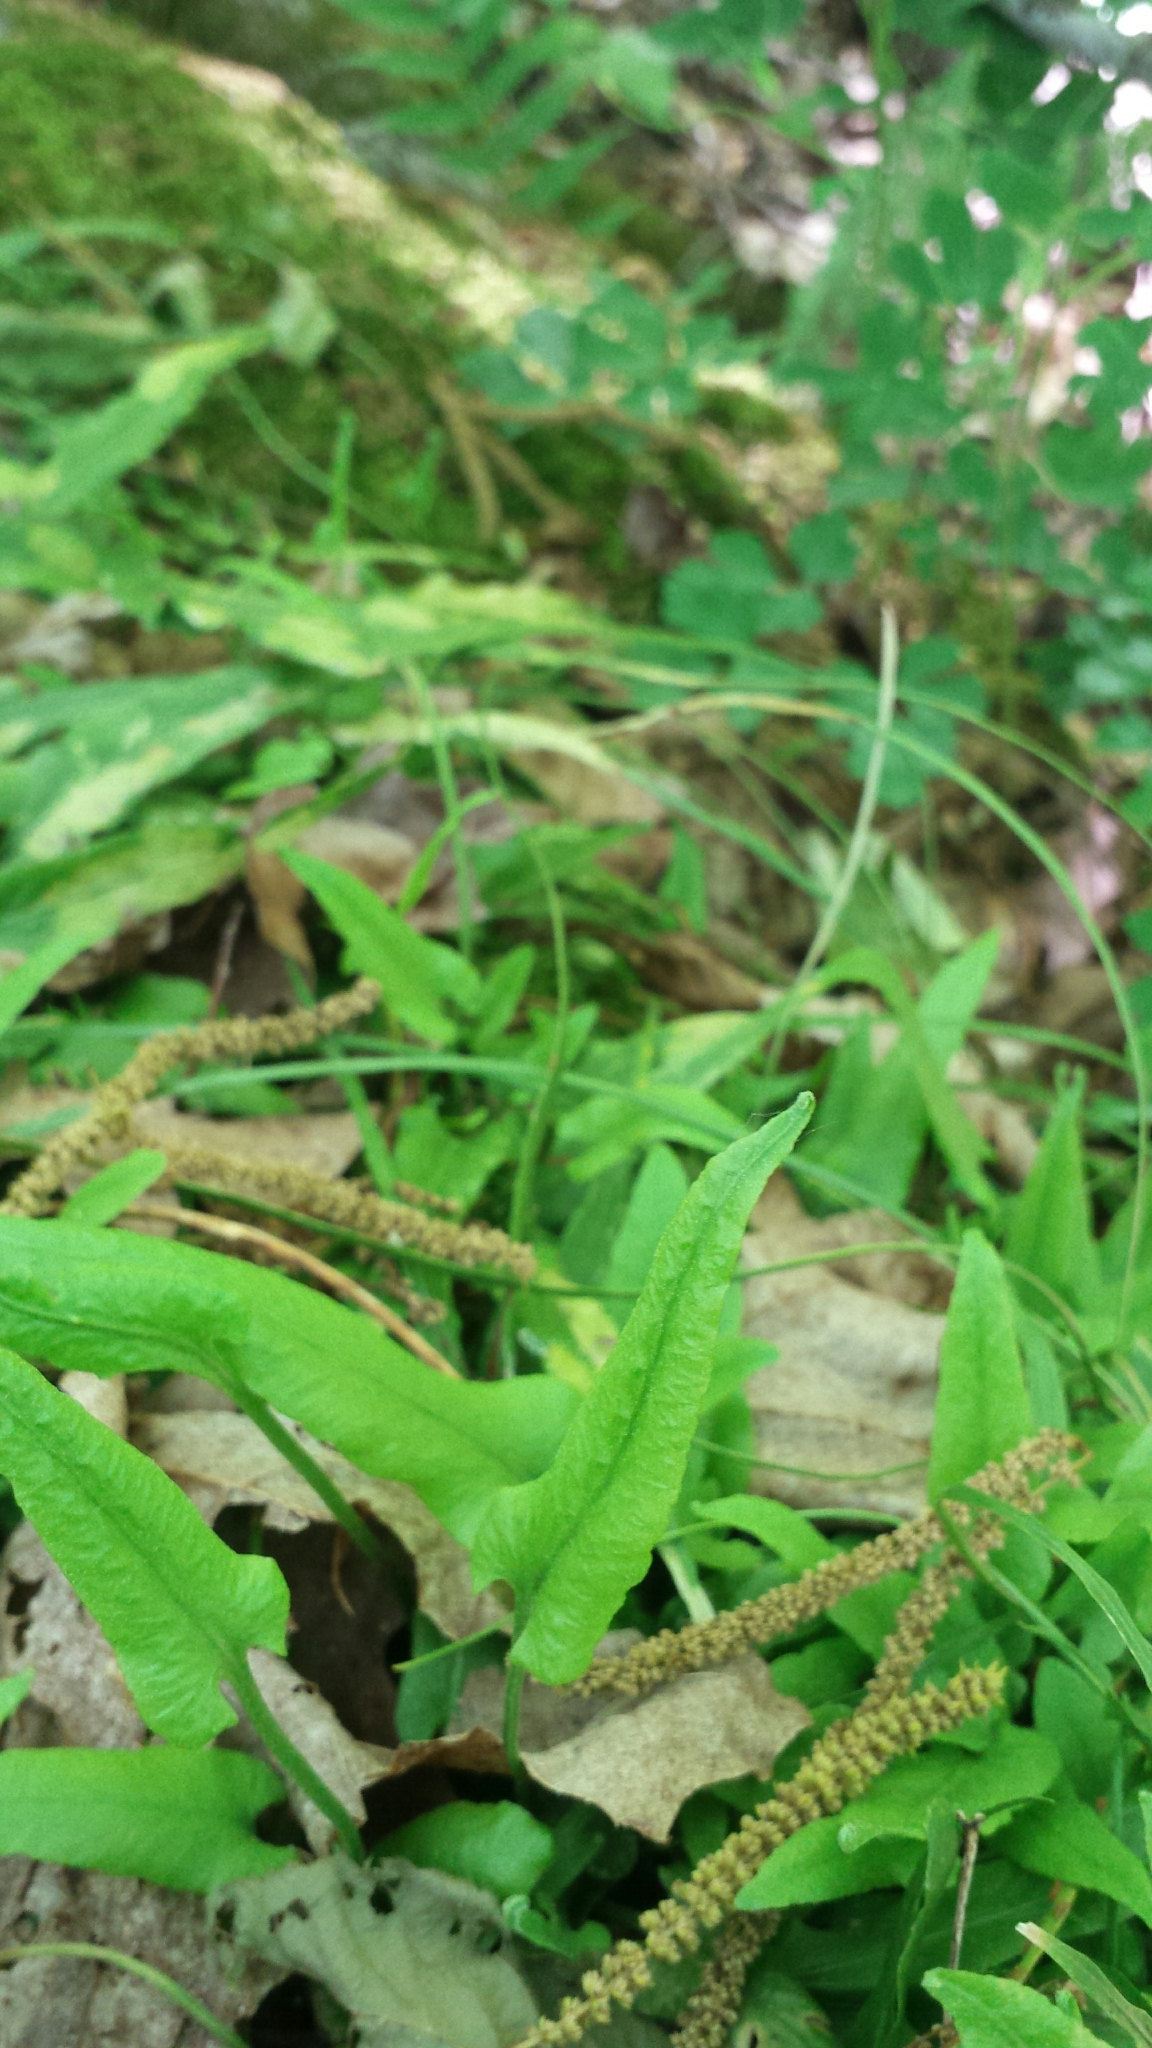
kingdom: Plantae
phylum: Tracheophyta
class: Polypodiopsida
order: Polypodiales
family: Aspleniaceae
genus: Asplenium
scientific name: Asplenium rhizophyllum
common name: Walking fern
